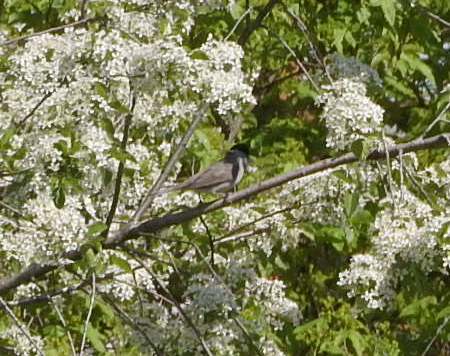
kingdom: Animalia
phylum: Chordata
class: Aves
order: Passeriformes
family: Sylviidae
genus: Sylvia
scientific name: Sylvia atricapilla
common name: Eurasian blackcap
